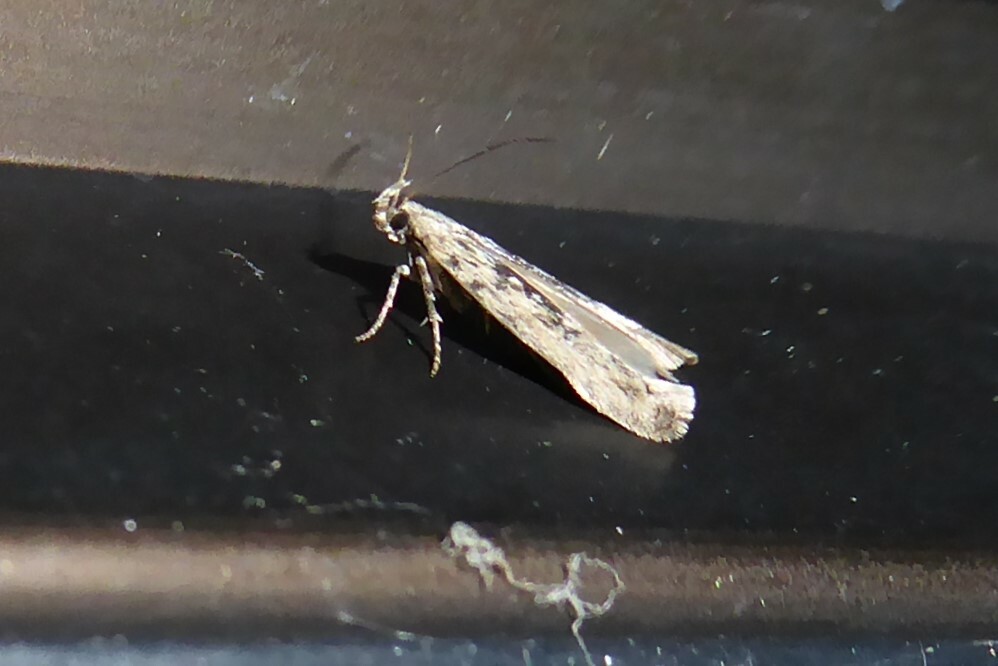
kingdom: Animalia
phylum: Arthropoda
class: Insecta
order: Lepidoptera
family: Gelechiidae
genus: Symmetrischema
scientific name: Symmetrischema striatella
